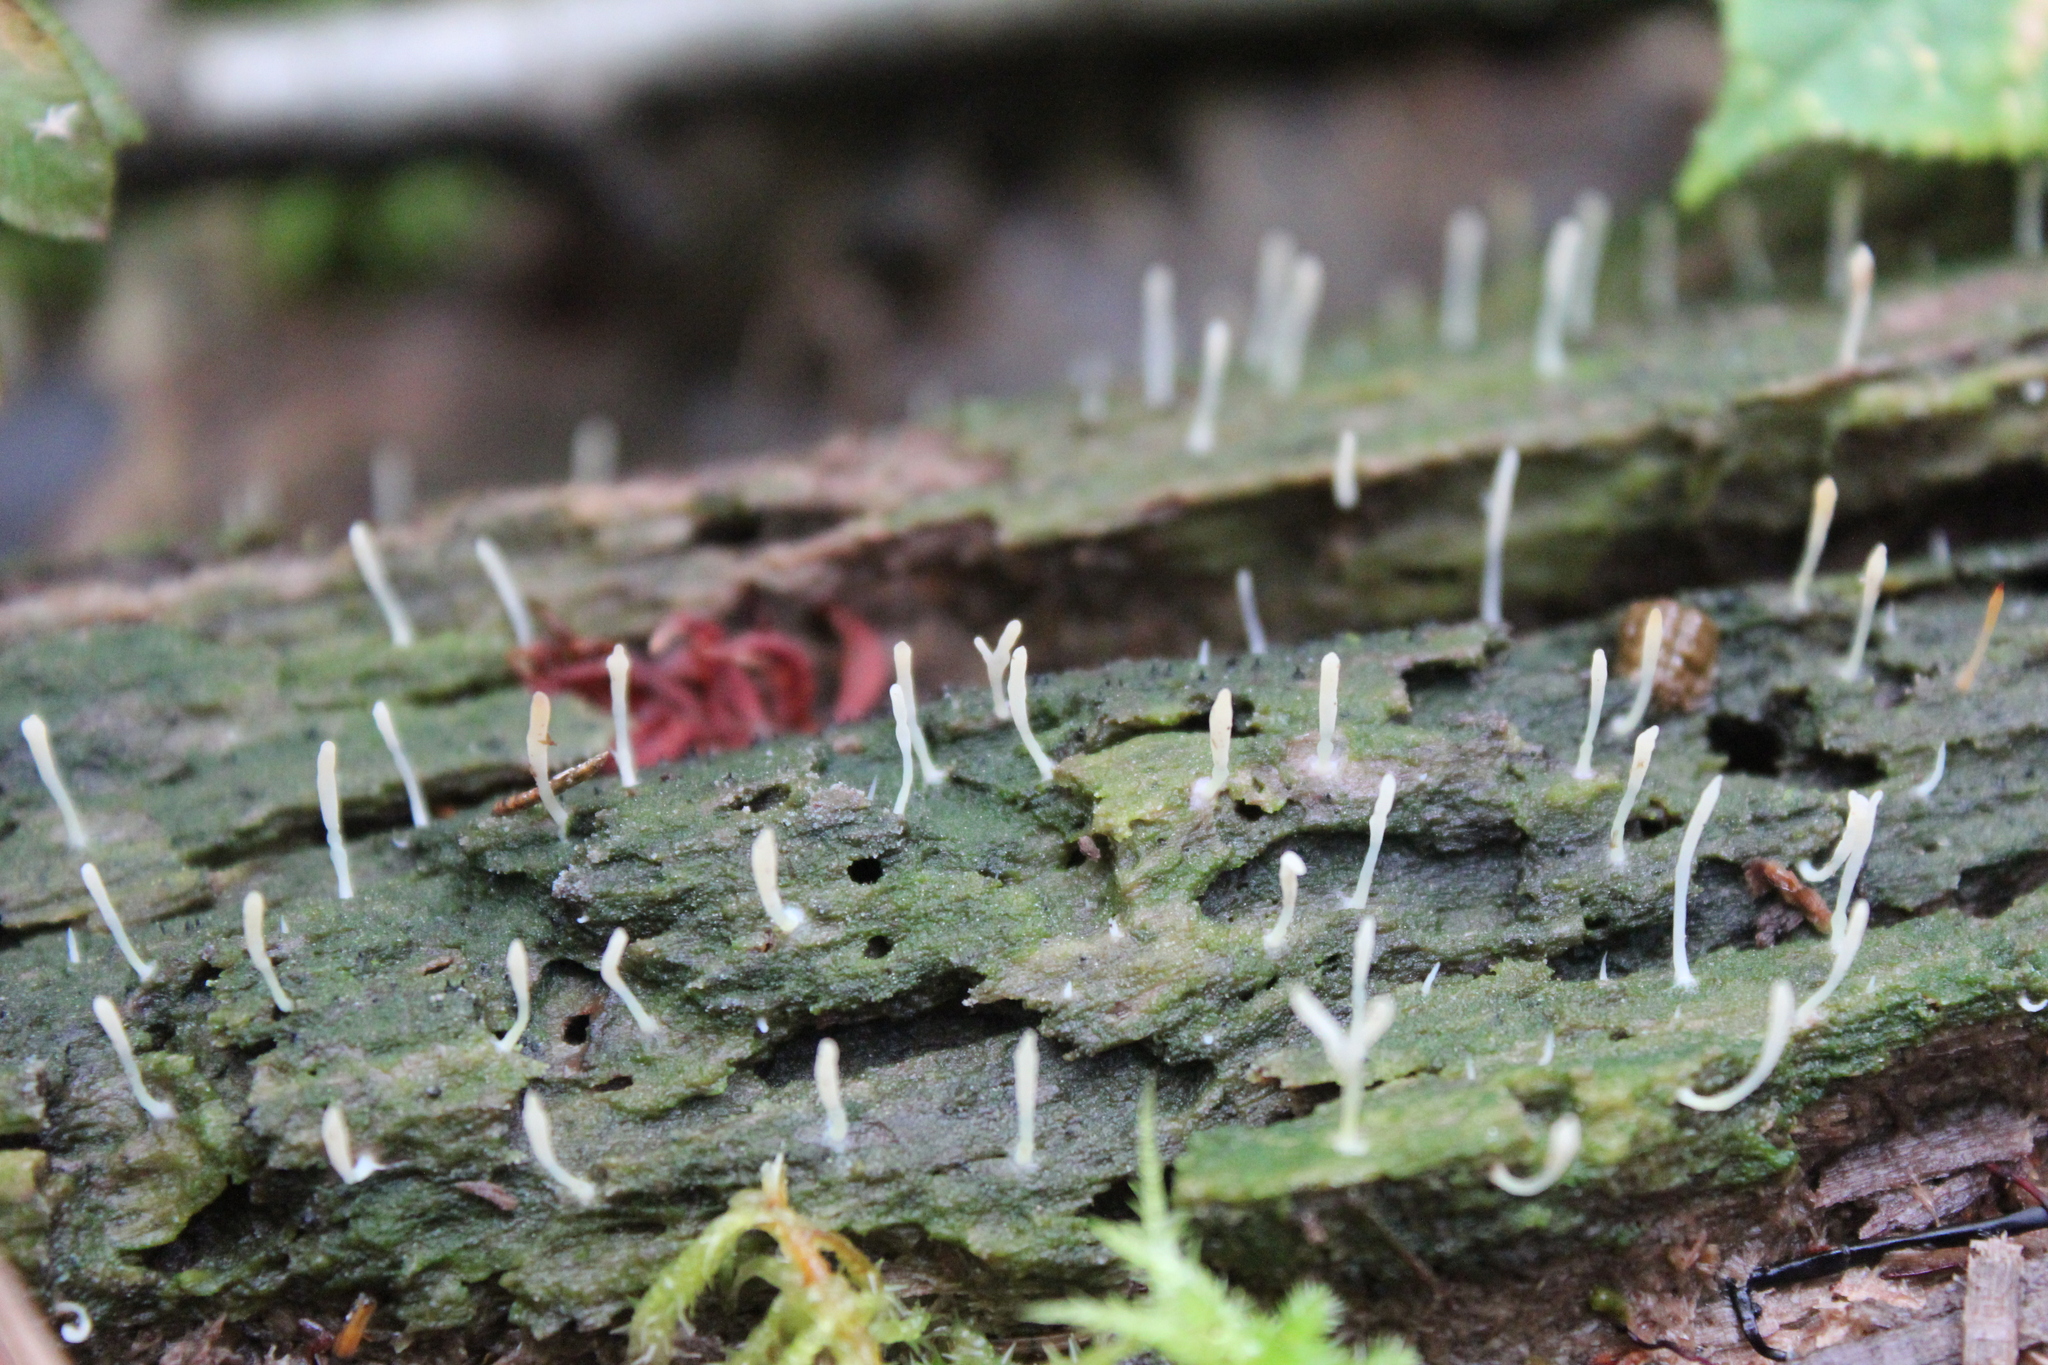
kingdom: Fungi
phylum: Basidiomycota
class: Agaricomycetes
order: Cantharellales
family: Hydnaceae
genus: Multiclavula
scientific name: Multiclavula mucida
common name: White green-algae coral
